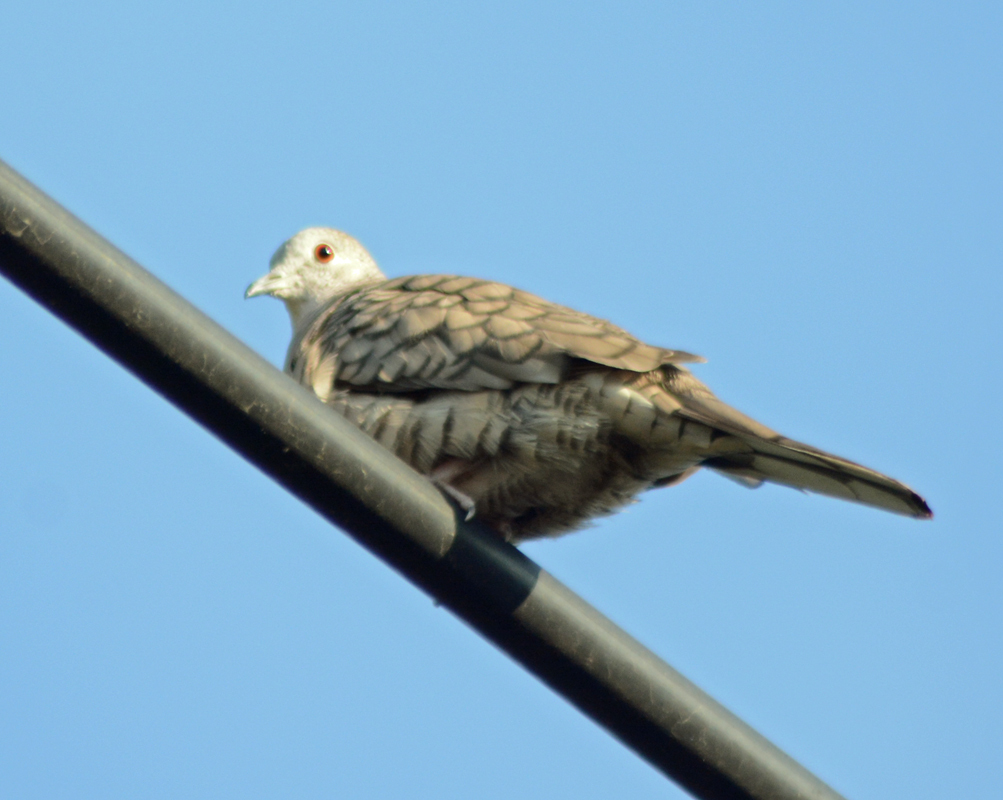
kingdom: Animalia
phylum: Chordata
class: Aves
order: Columbiformes
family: Columbidae
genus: Columbina
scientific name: Columbina inca
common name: Inca dove
